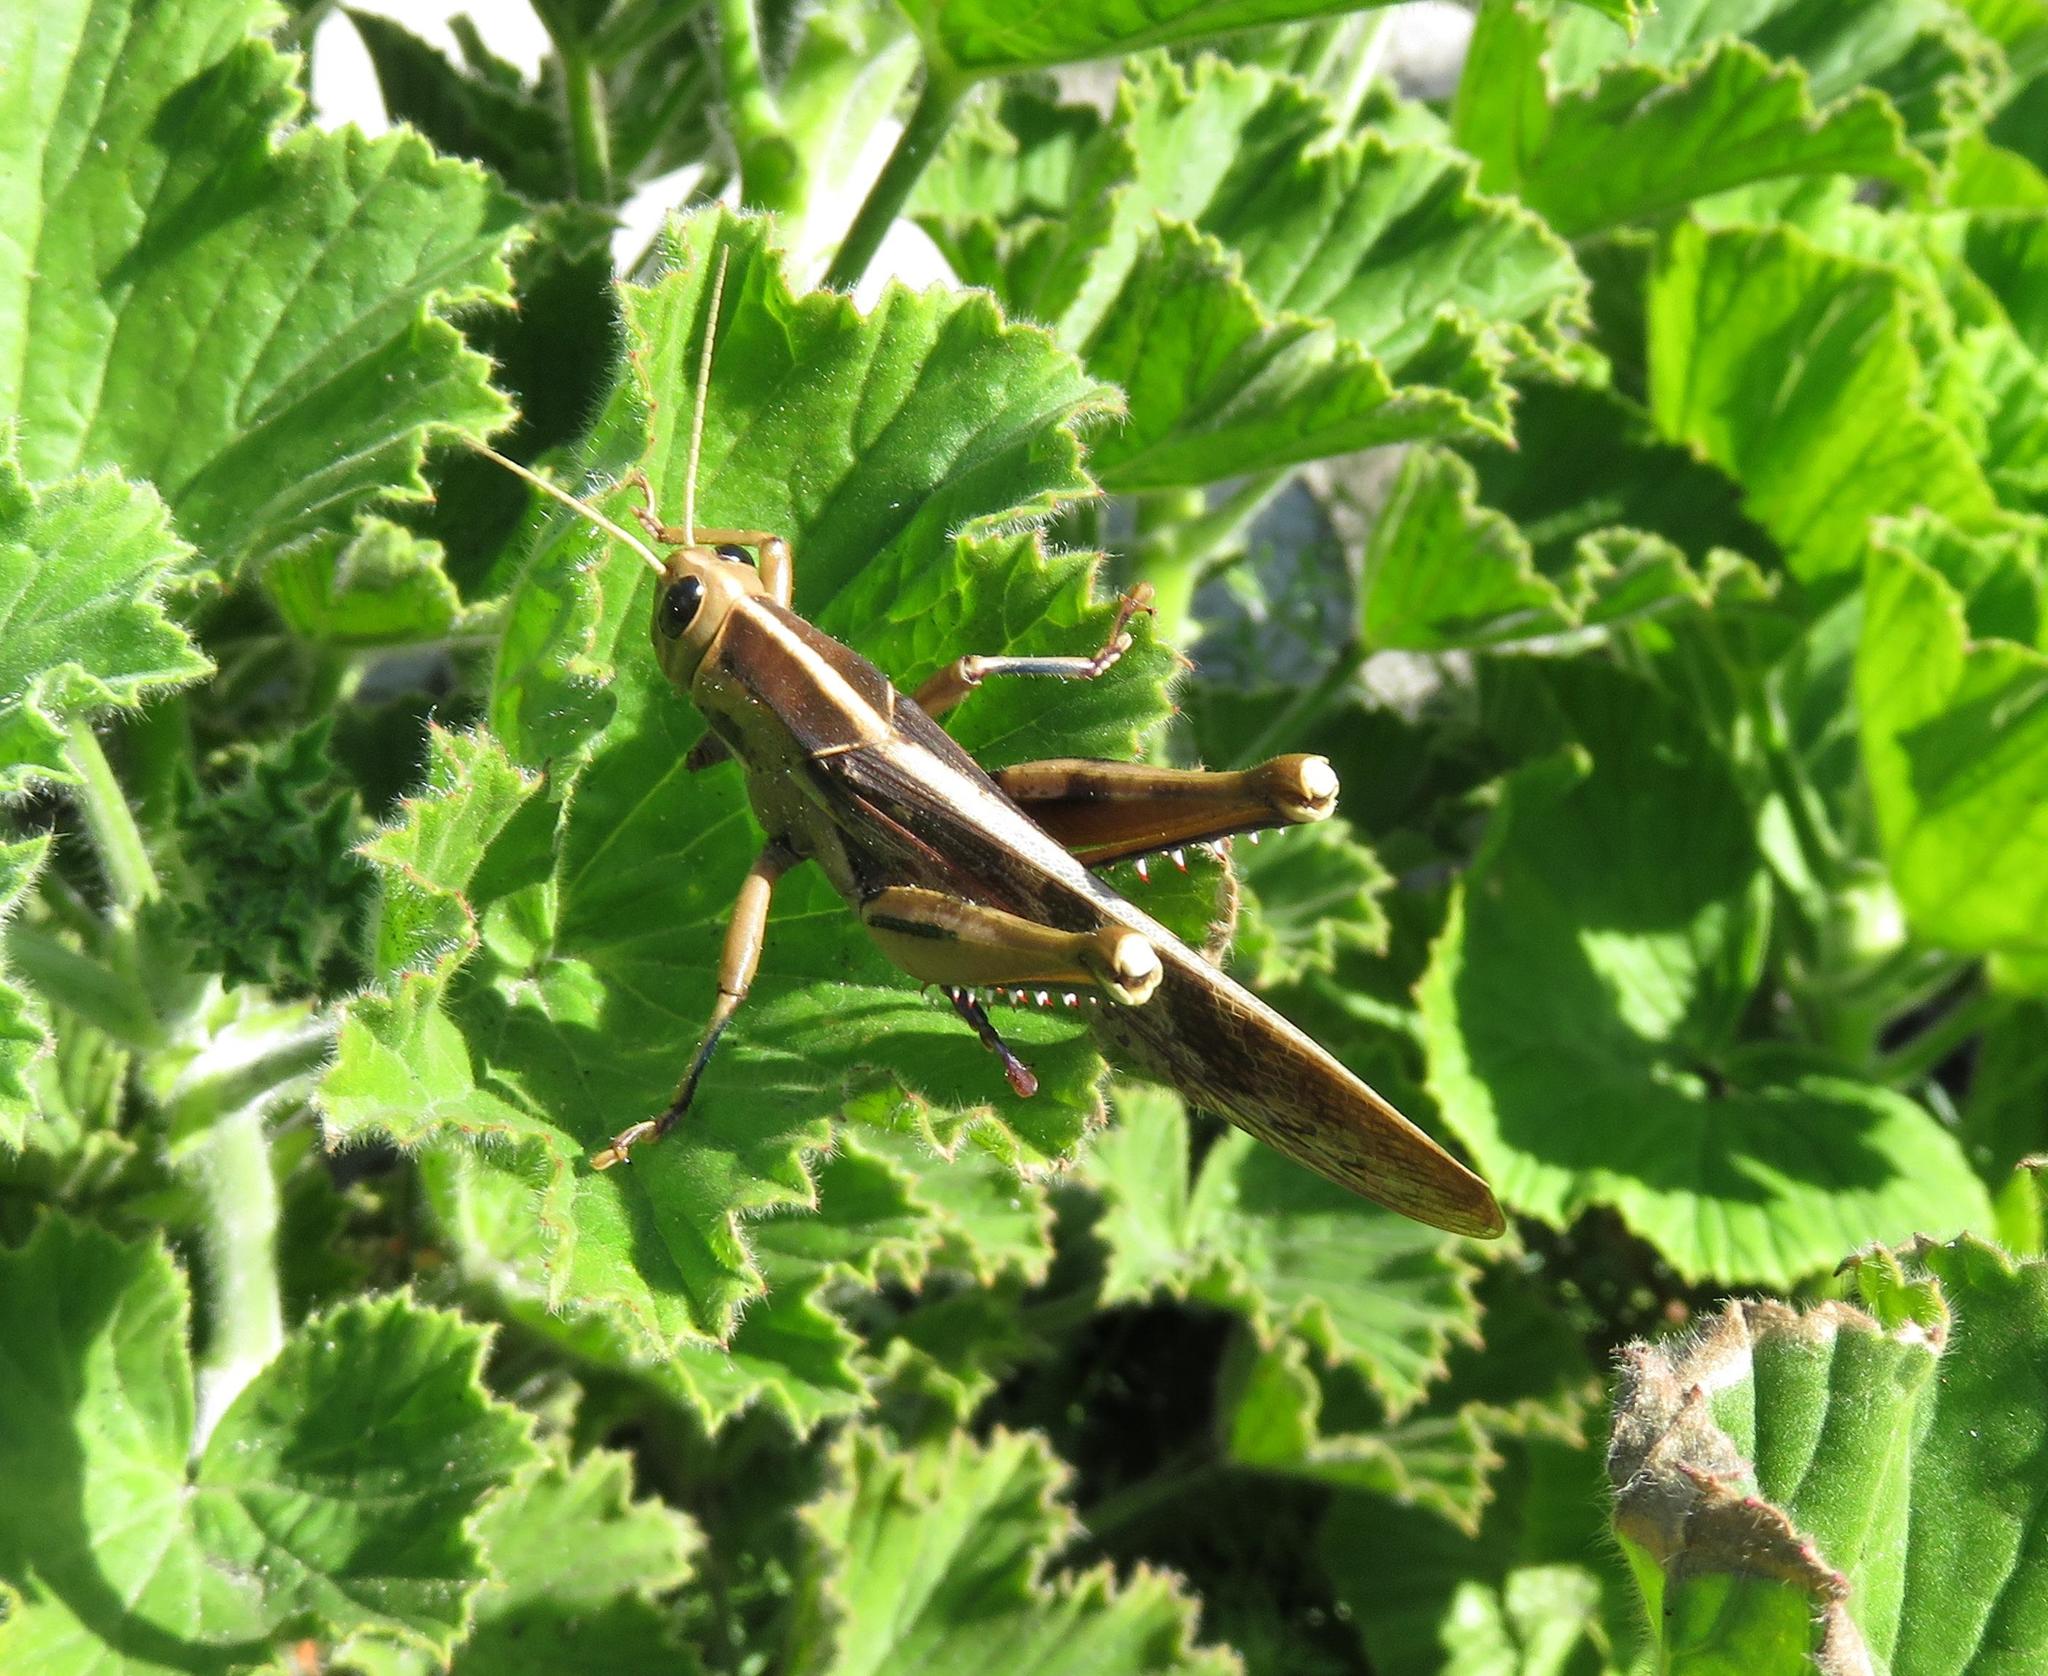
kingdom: Animalia
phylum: Arthropoda
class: Insecta
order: Orthoptera
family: Acrididae
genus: Acanthacris
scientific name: Acanthacris ruficornis
